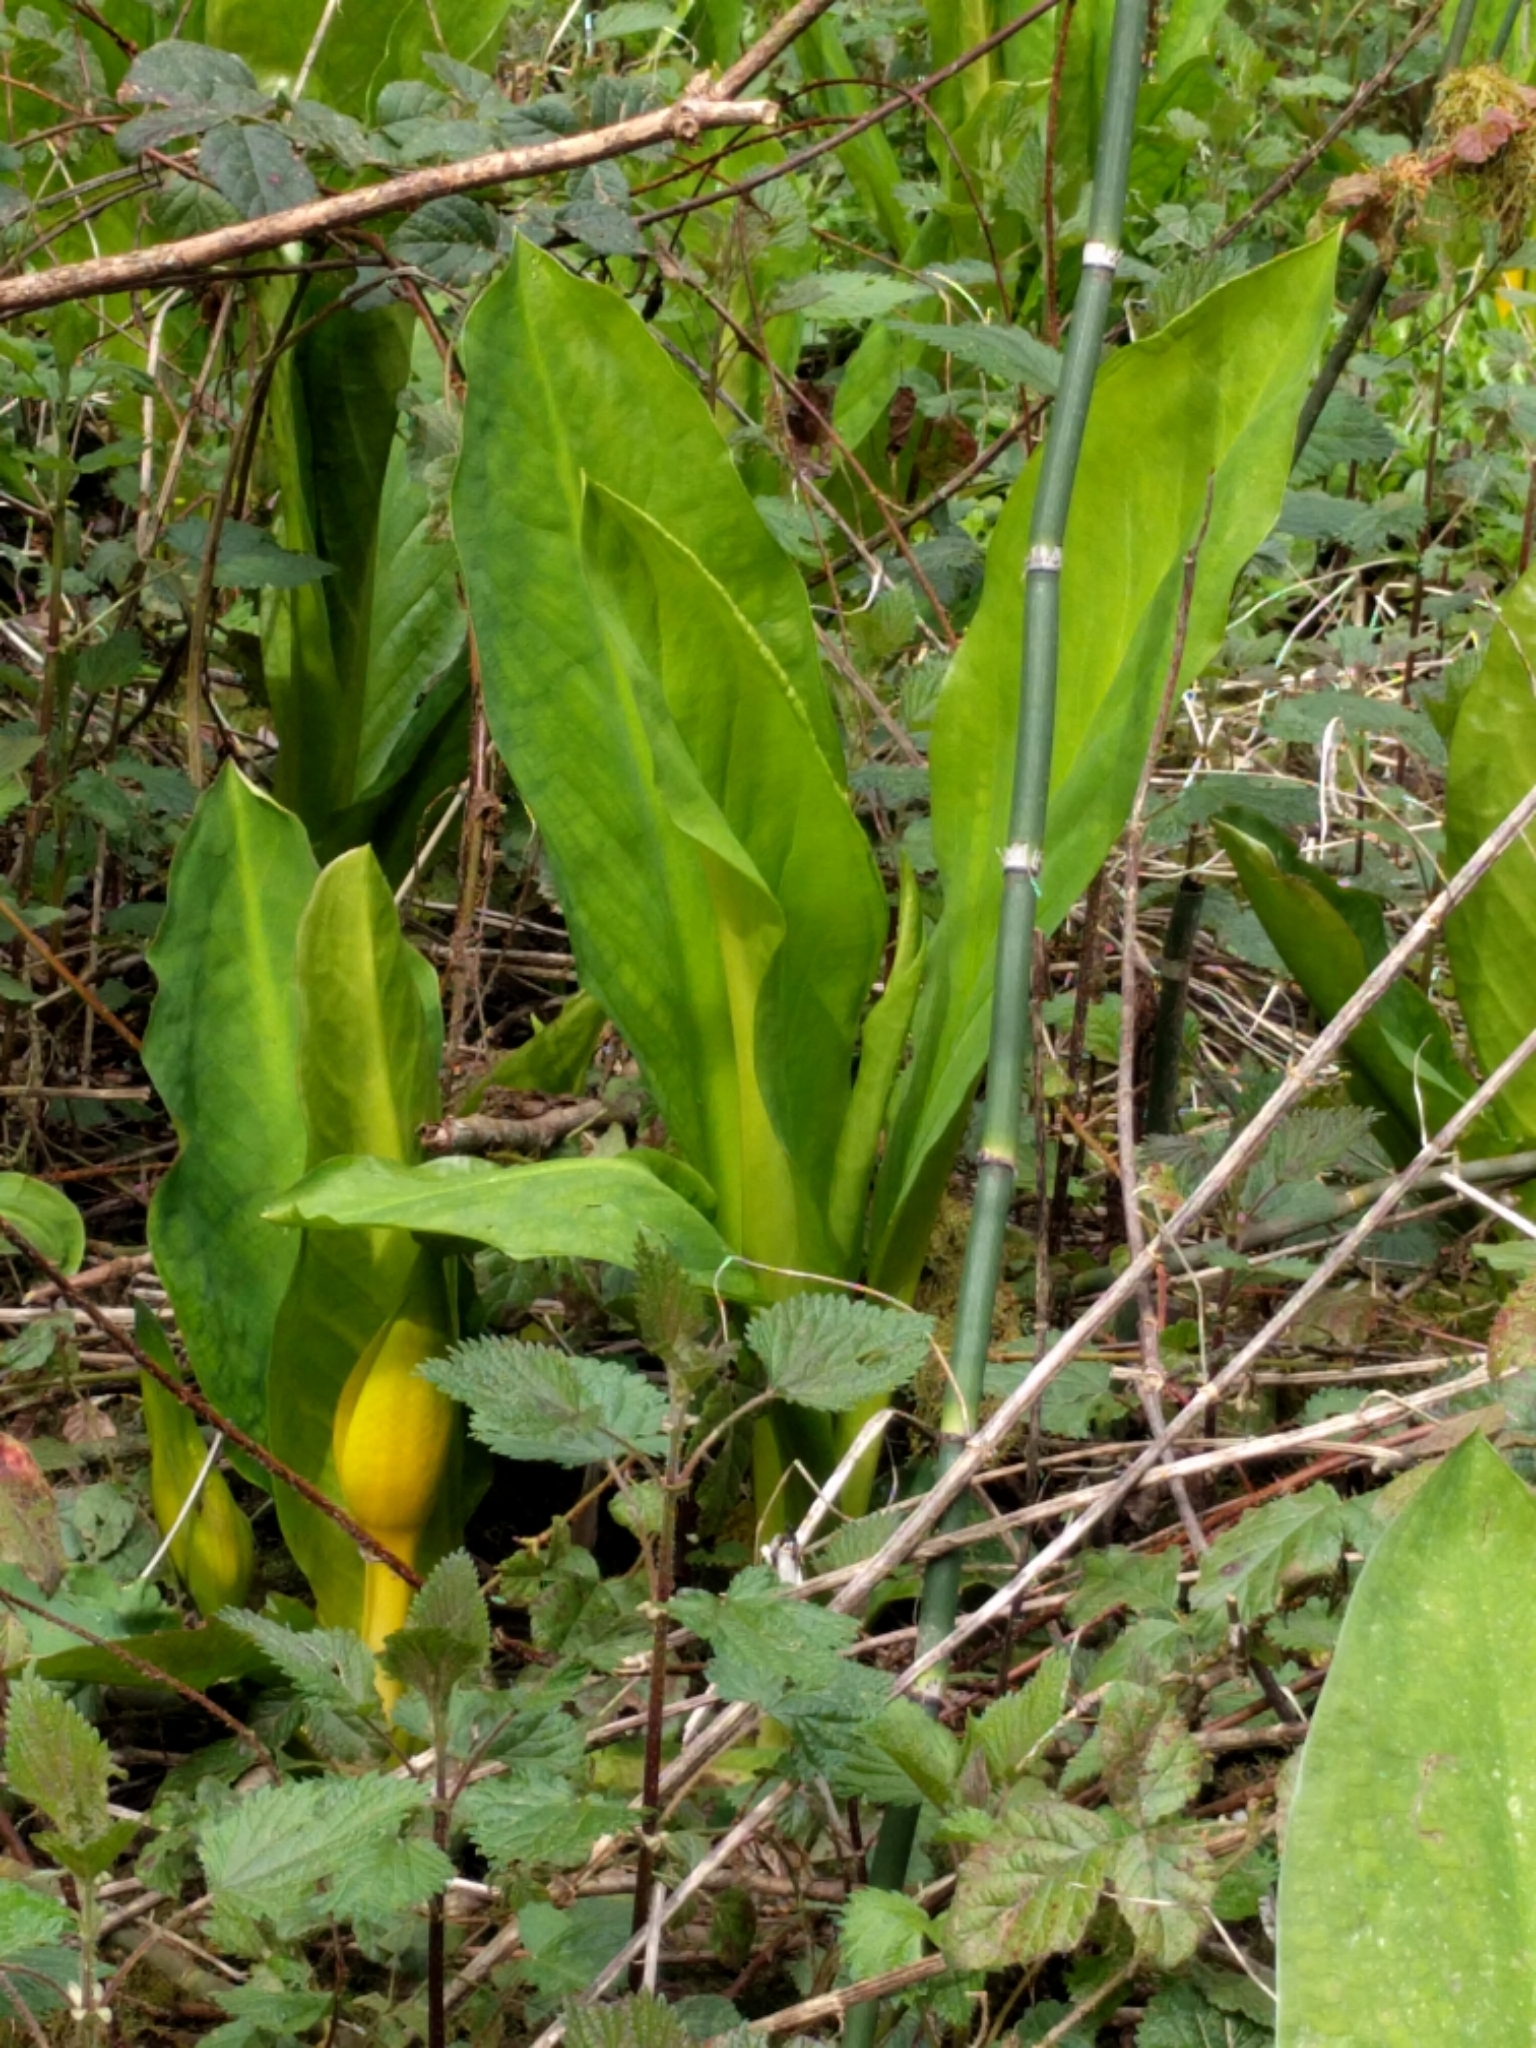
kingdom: Plantae
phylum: Tracheophyta
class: Liliopsida
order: Alismatales
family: Araceae
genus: Lysichiton
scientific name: Lysichiton americanus
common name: American skunk cabbage
